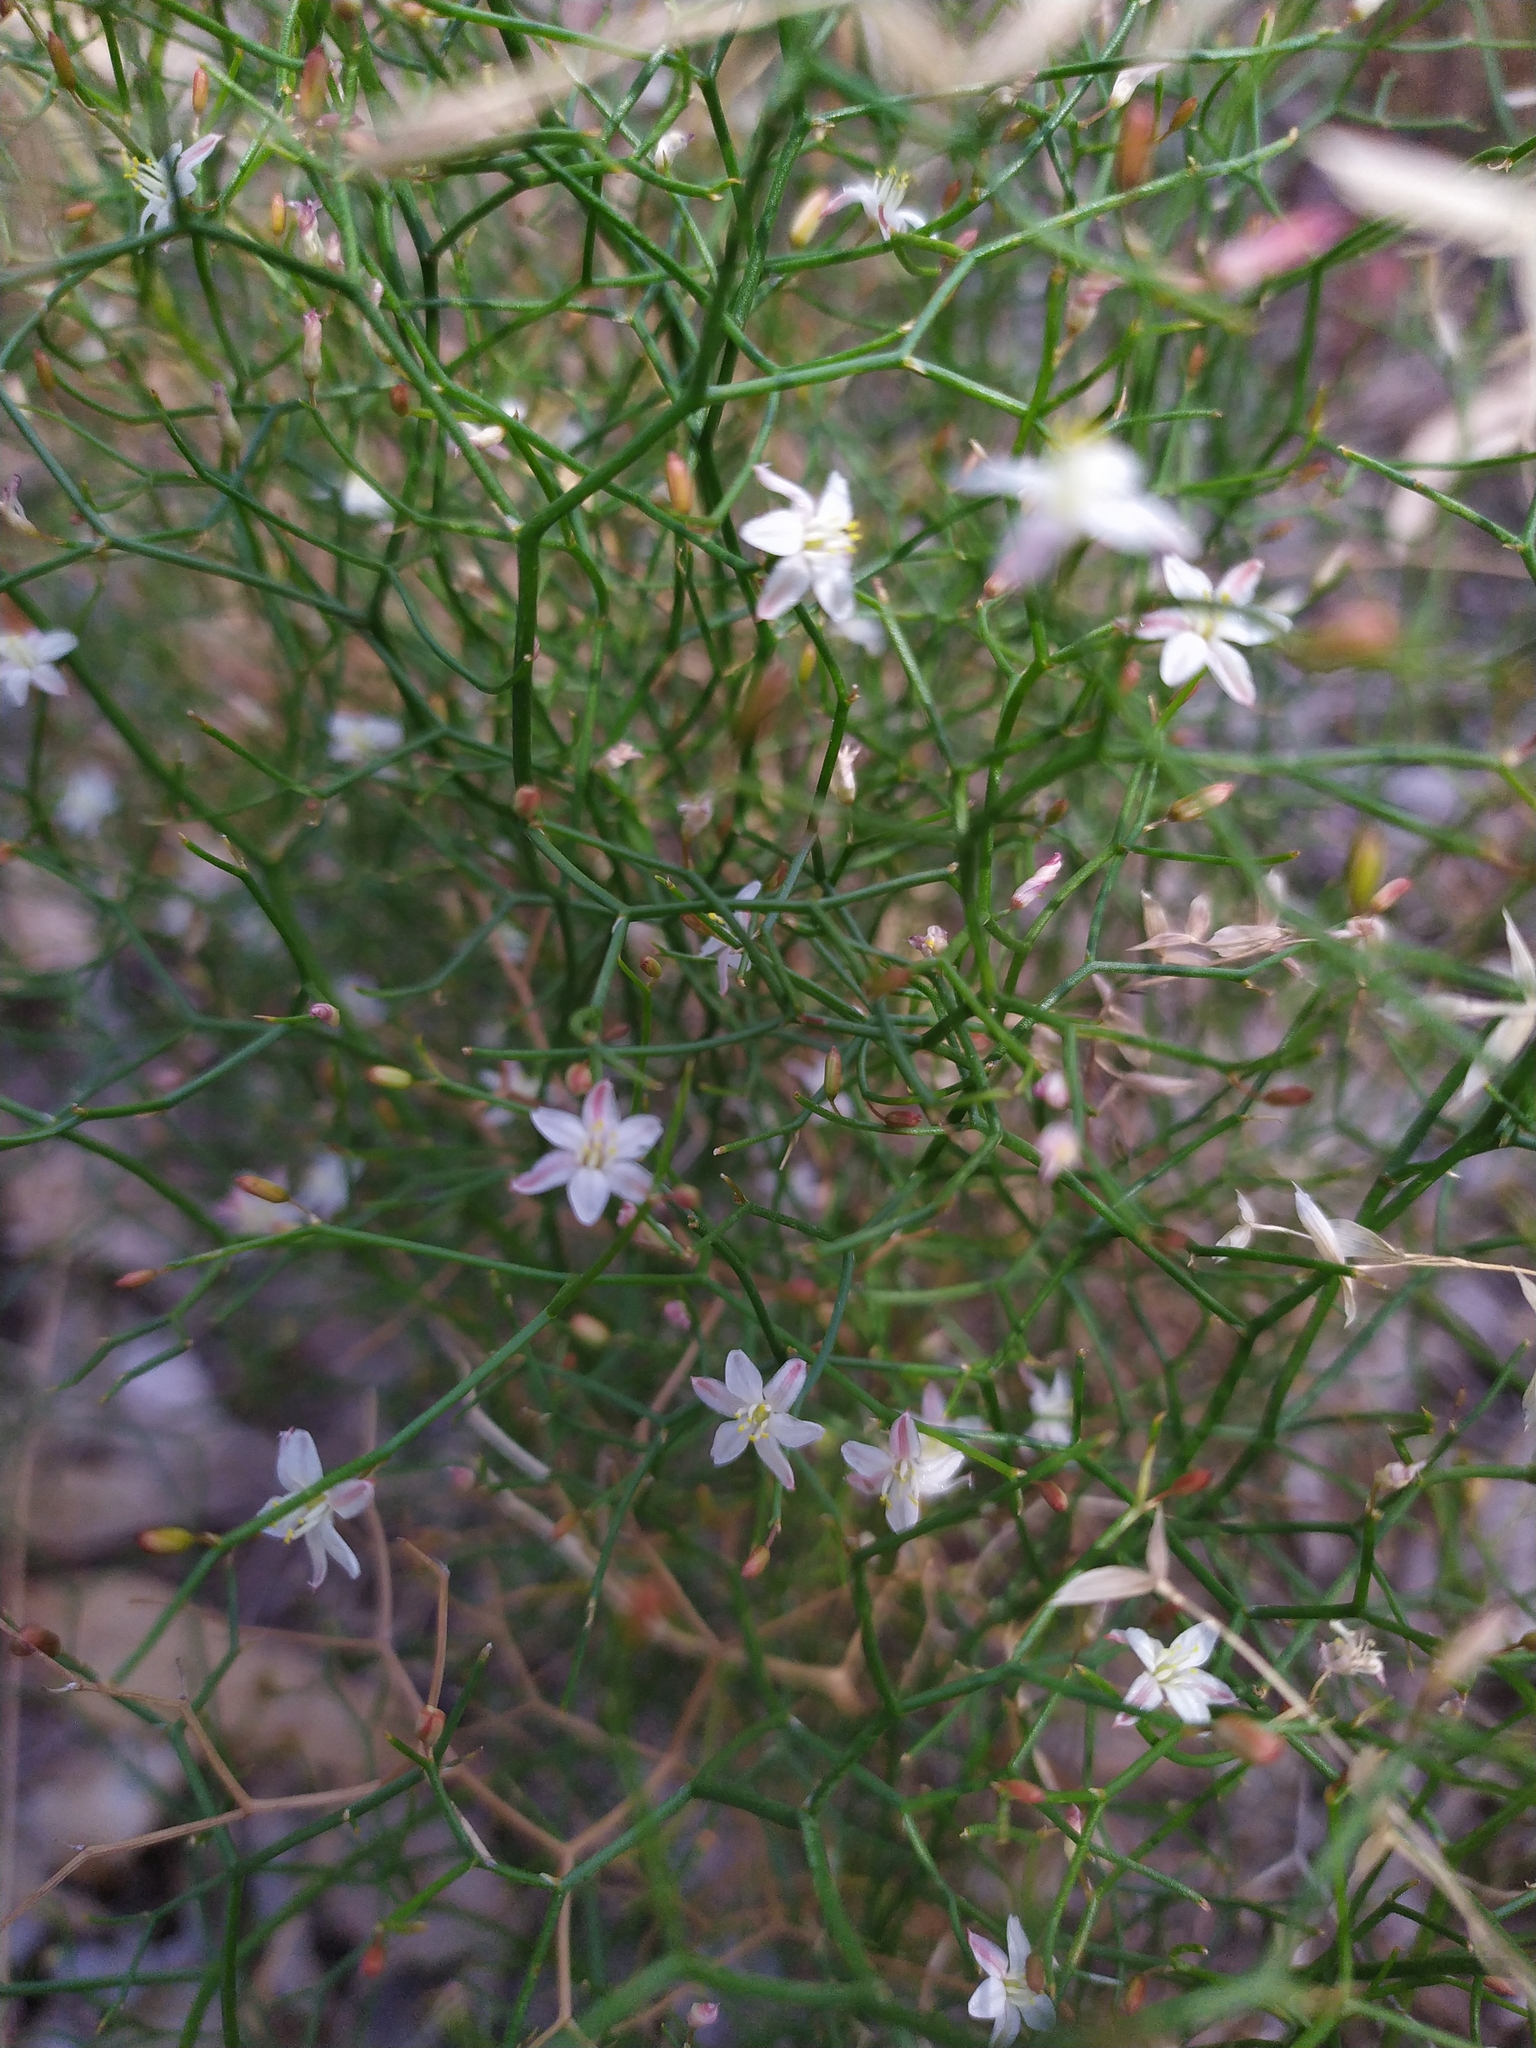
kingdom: Plantae
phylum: Tracheophyta
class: Liliopsida
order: Asparagales
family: Asphodelaceae
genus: Corynotheca
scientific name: Corynotheca micrantha
